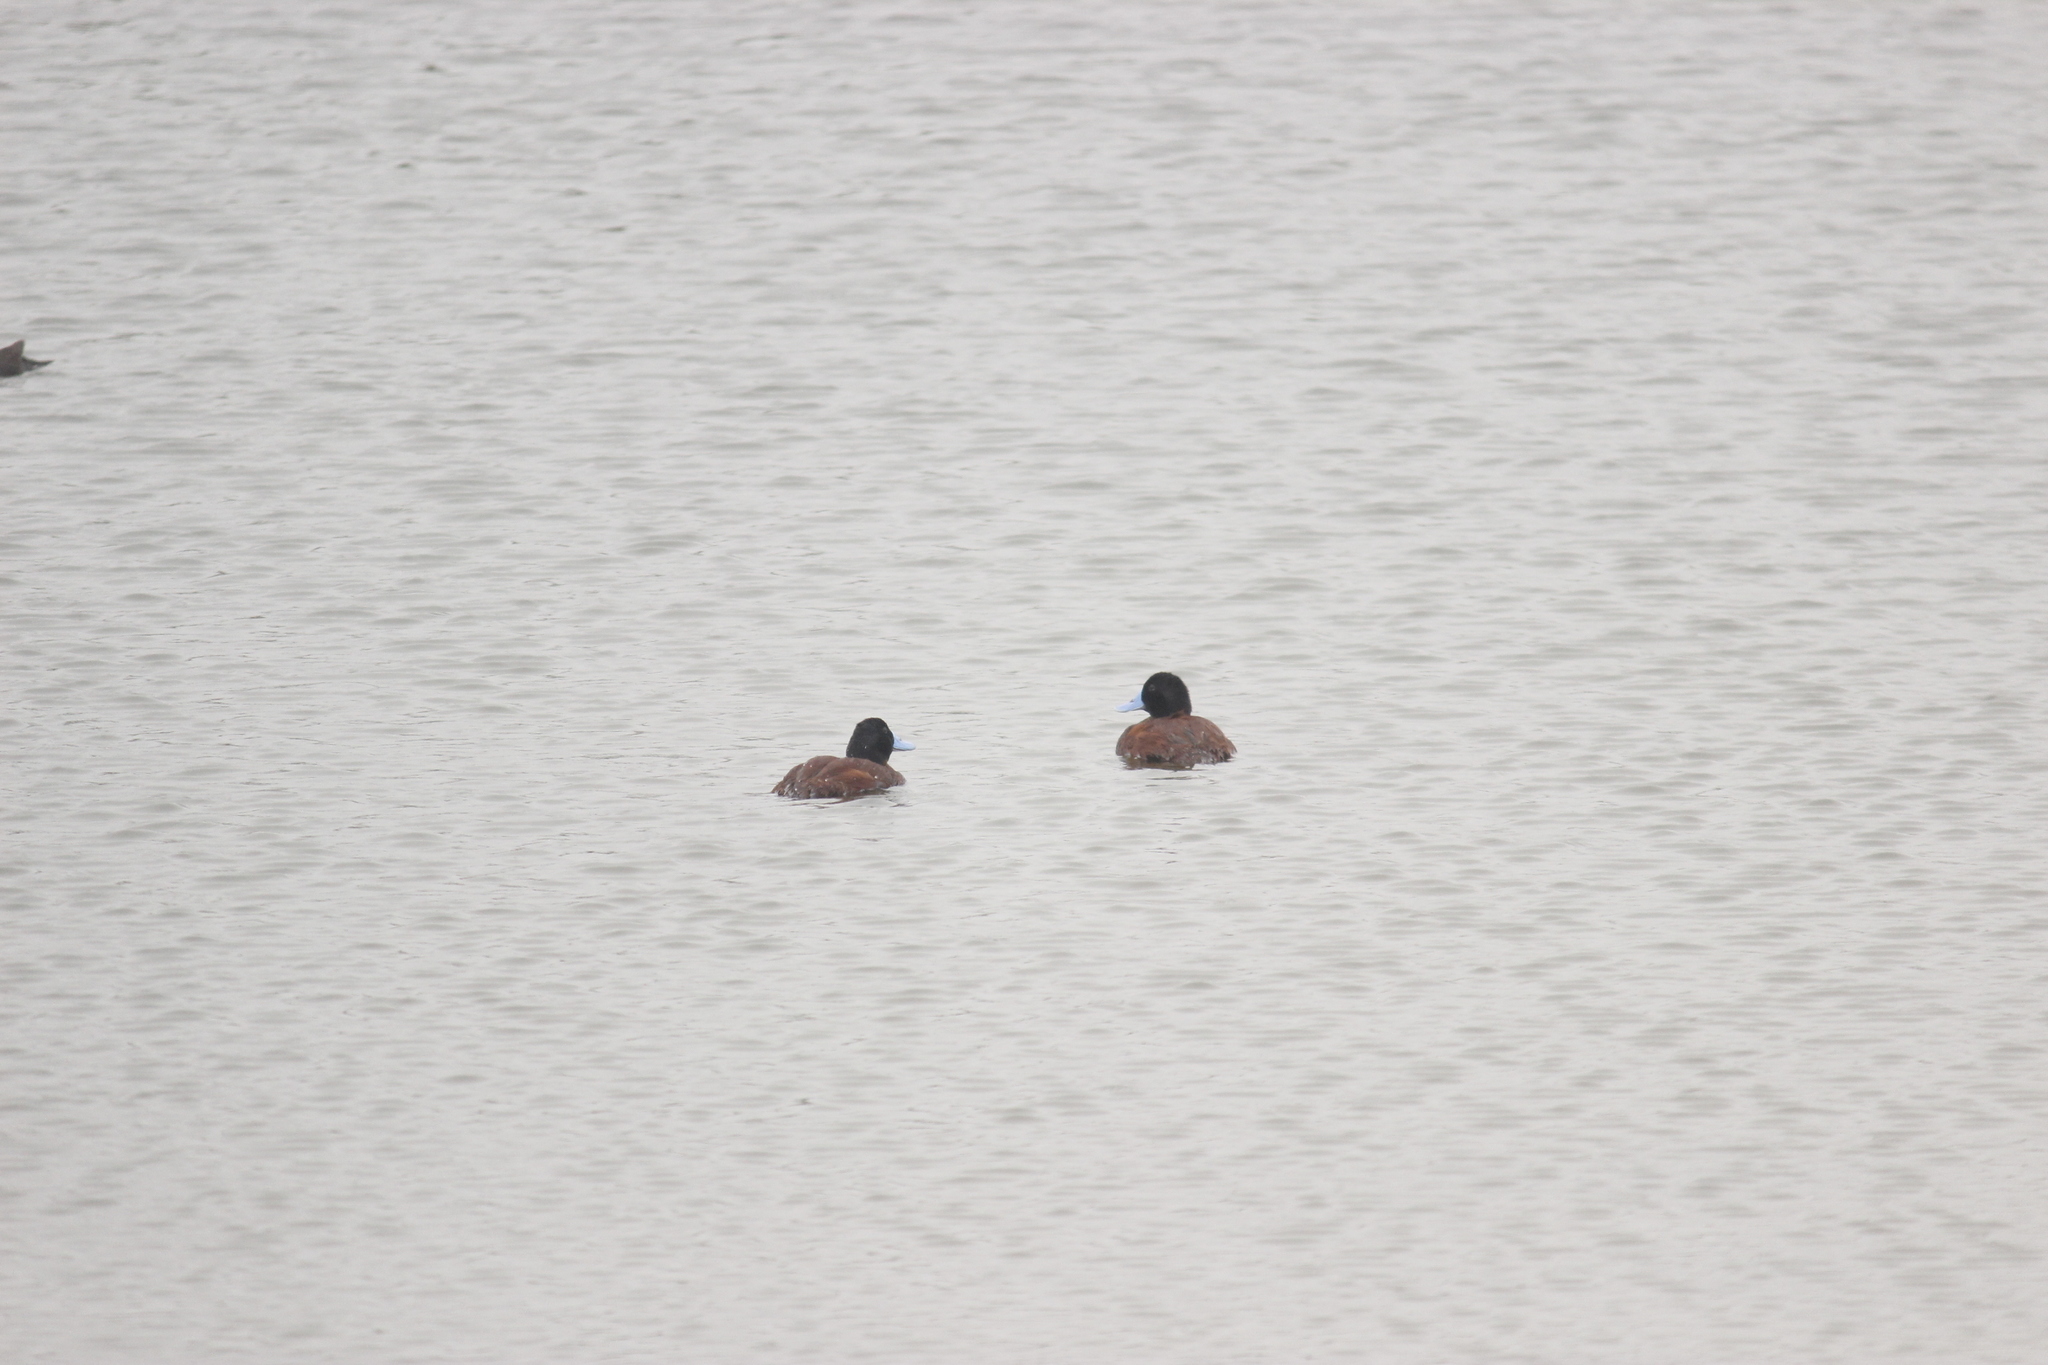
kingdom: Animalia
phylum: Chordata
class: Aves
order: Anseriformes
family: Anatidae
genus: Oxyura
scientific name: Oxyura ferruginea
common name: Andean duck
